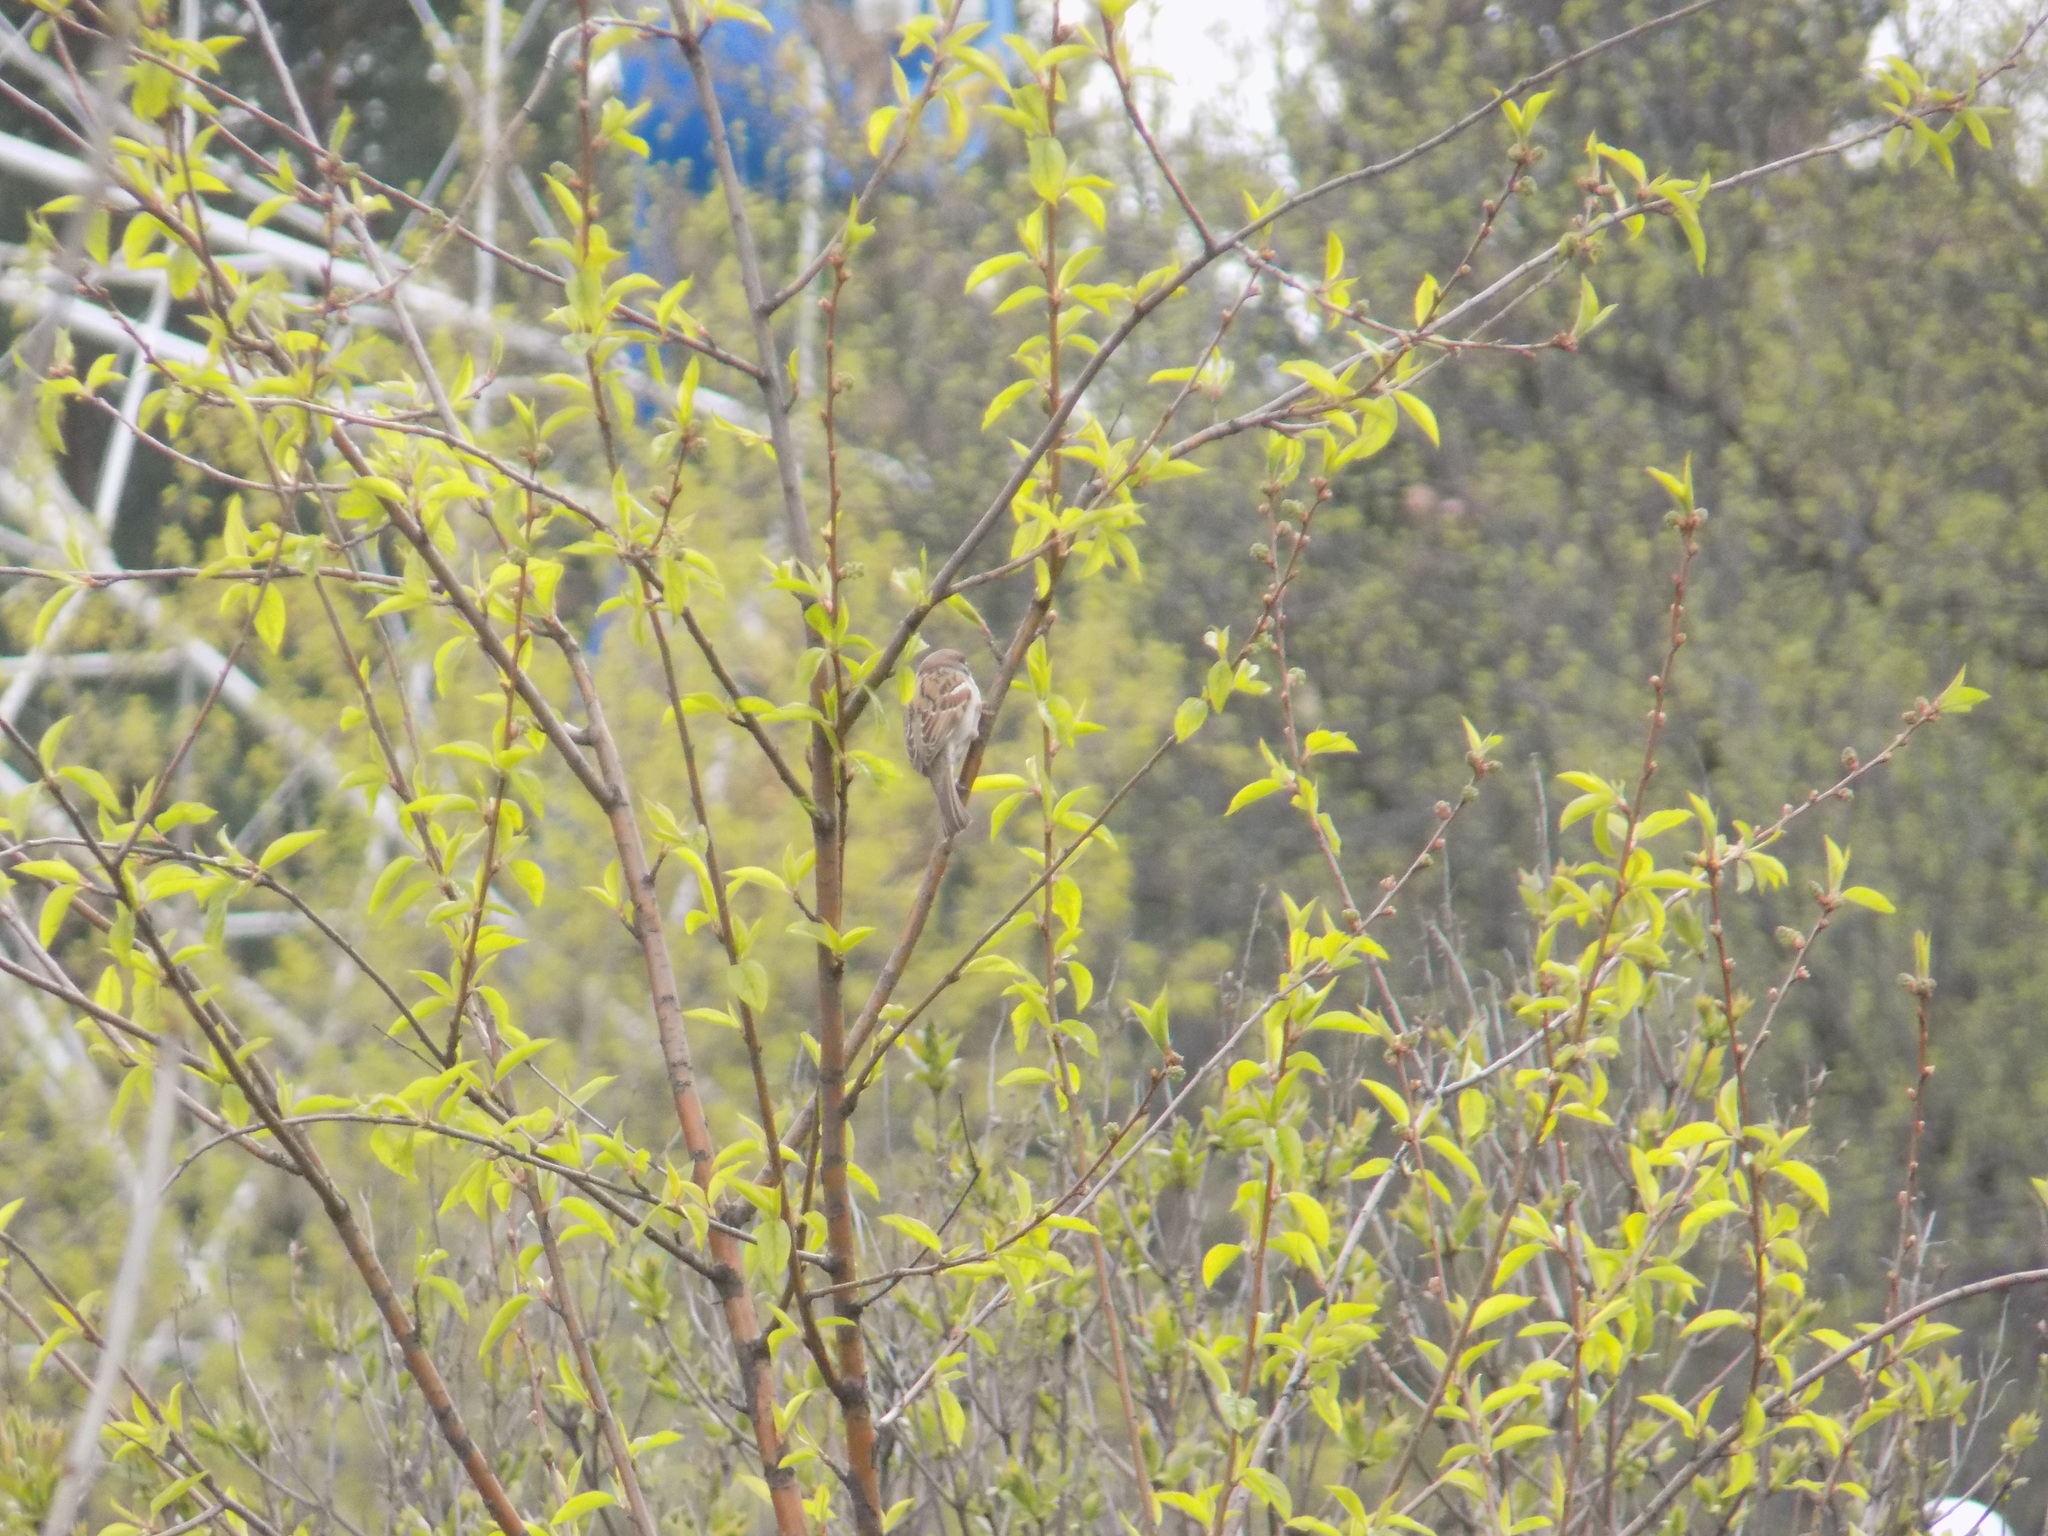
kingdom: Animalia
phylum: Chordata
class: Aves
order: Passeriformes
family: Passeridae
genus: Passer
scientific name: Passer domesticus
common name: House sparrow
